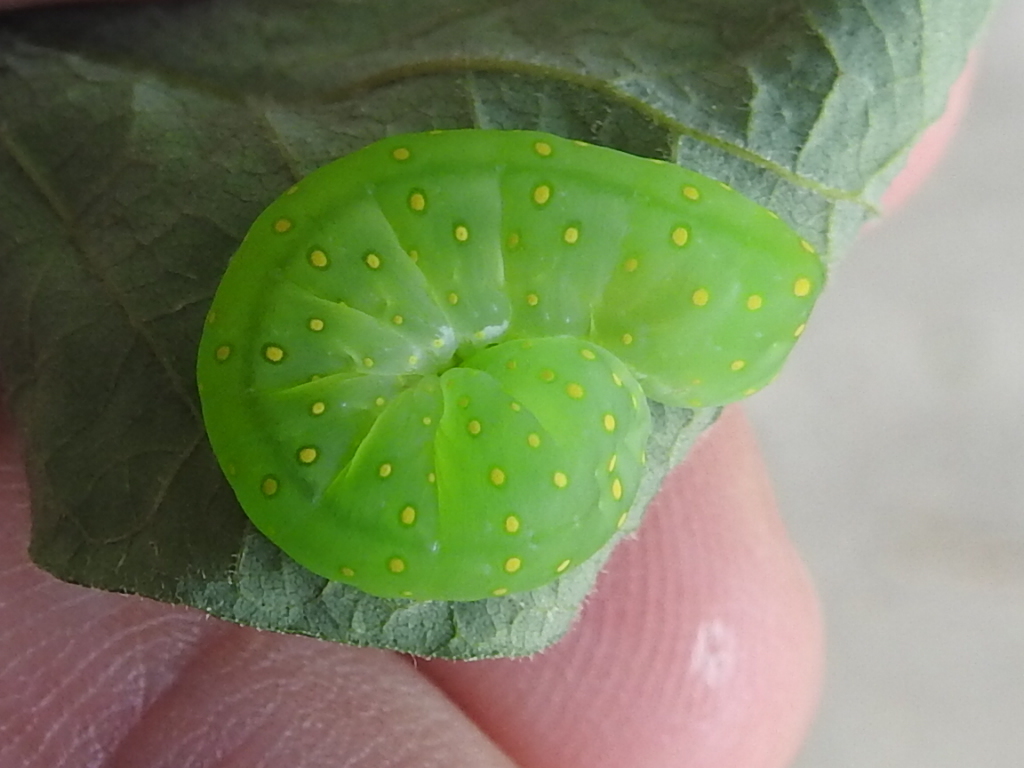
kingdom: Animalia
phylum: Arthropoda
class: Insecta
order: Lepidoptera
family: Noctuidae
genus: Phosphila
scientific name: Phosphila miselioides
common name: Spotted phosphila moth
